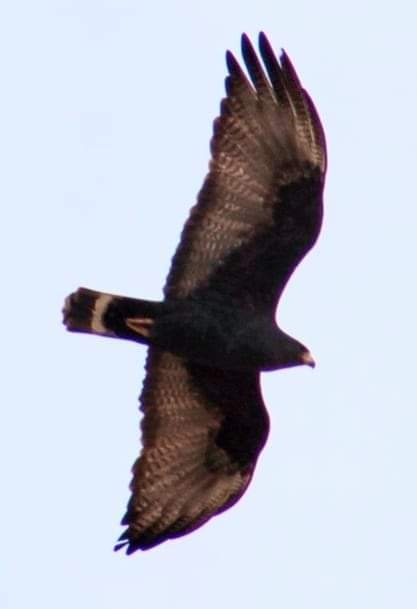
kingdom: Animalia
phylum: Chordata
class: Aves
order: Accipitriformes
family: Accipitridae
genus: Buteo
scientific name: Buteo albonotatus
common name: Zone-tailed hawk
